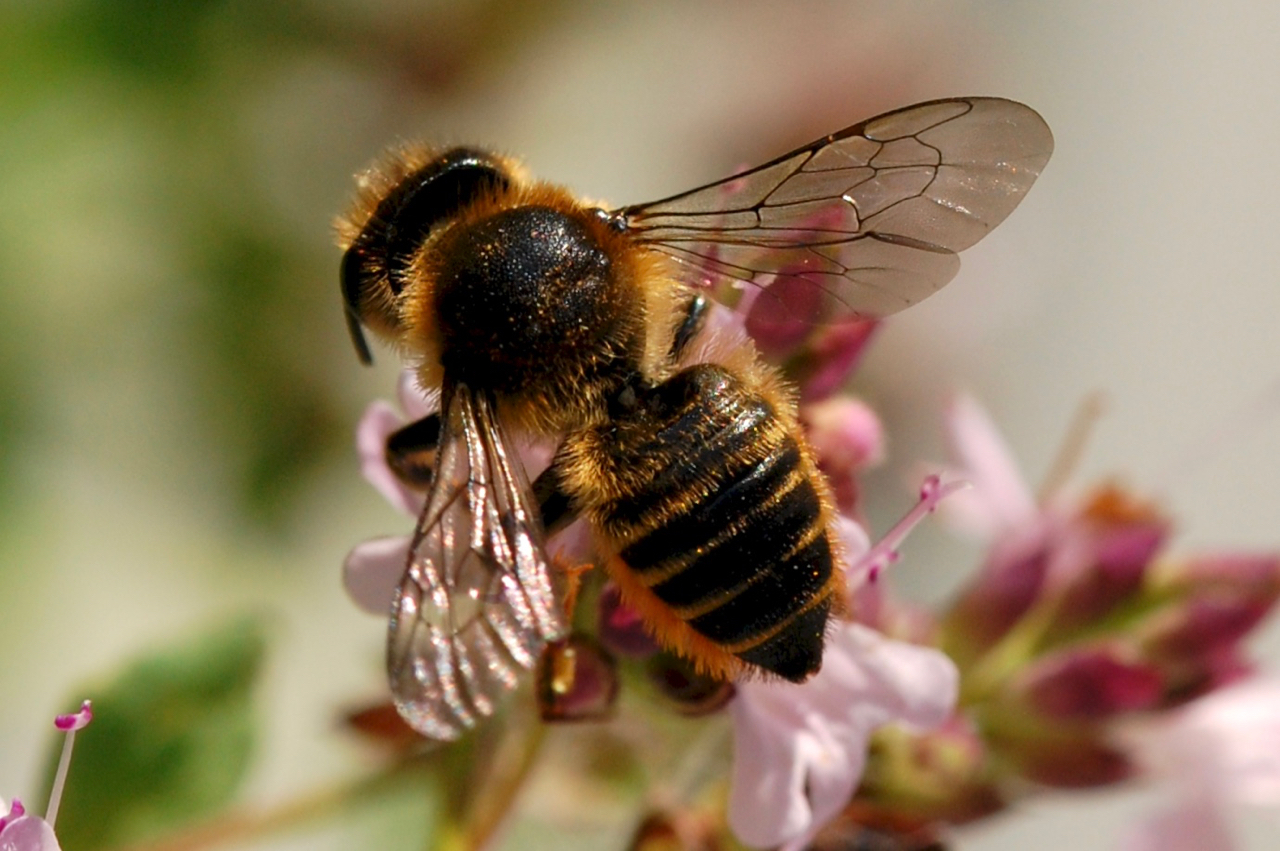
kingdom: Animalia
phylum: Arthropoda
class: Insecta
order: Hymenoptera
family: Megachilidae
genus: Megachile
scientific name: Megachile latimanus
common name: Leafcutting bee
